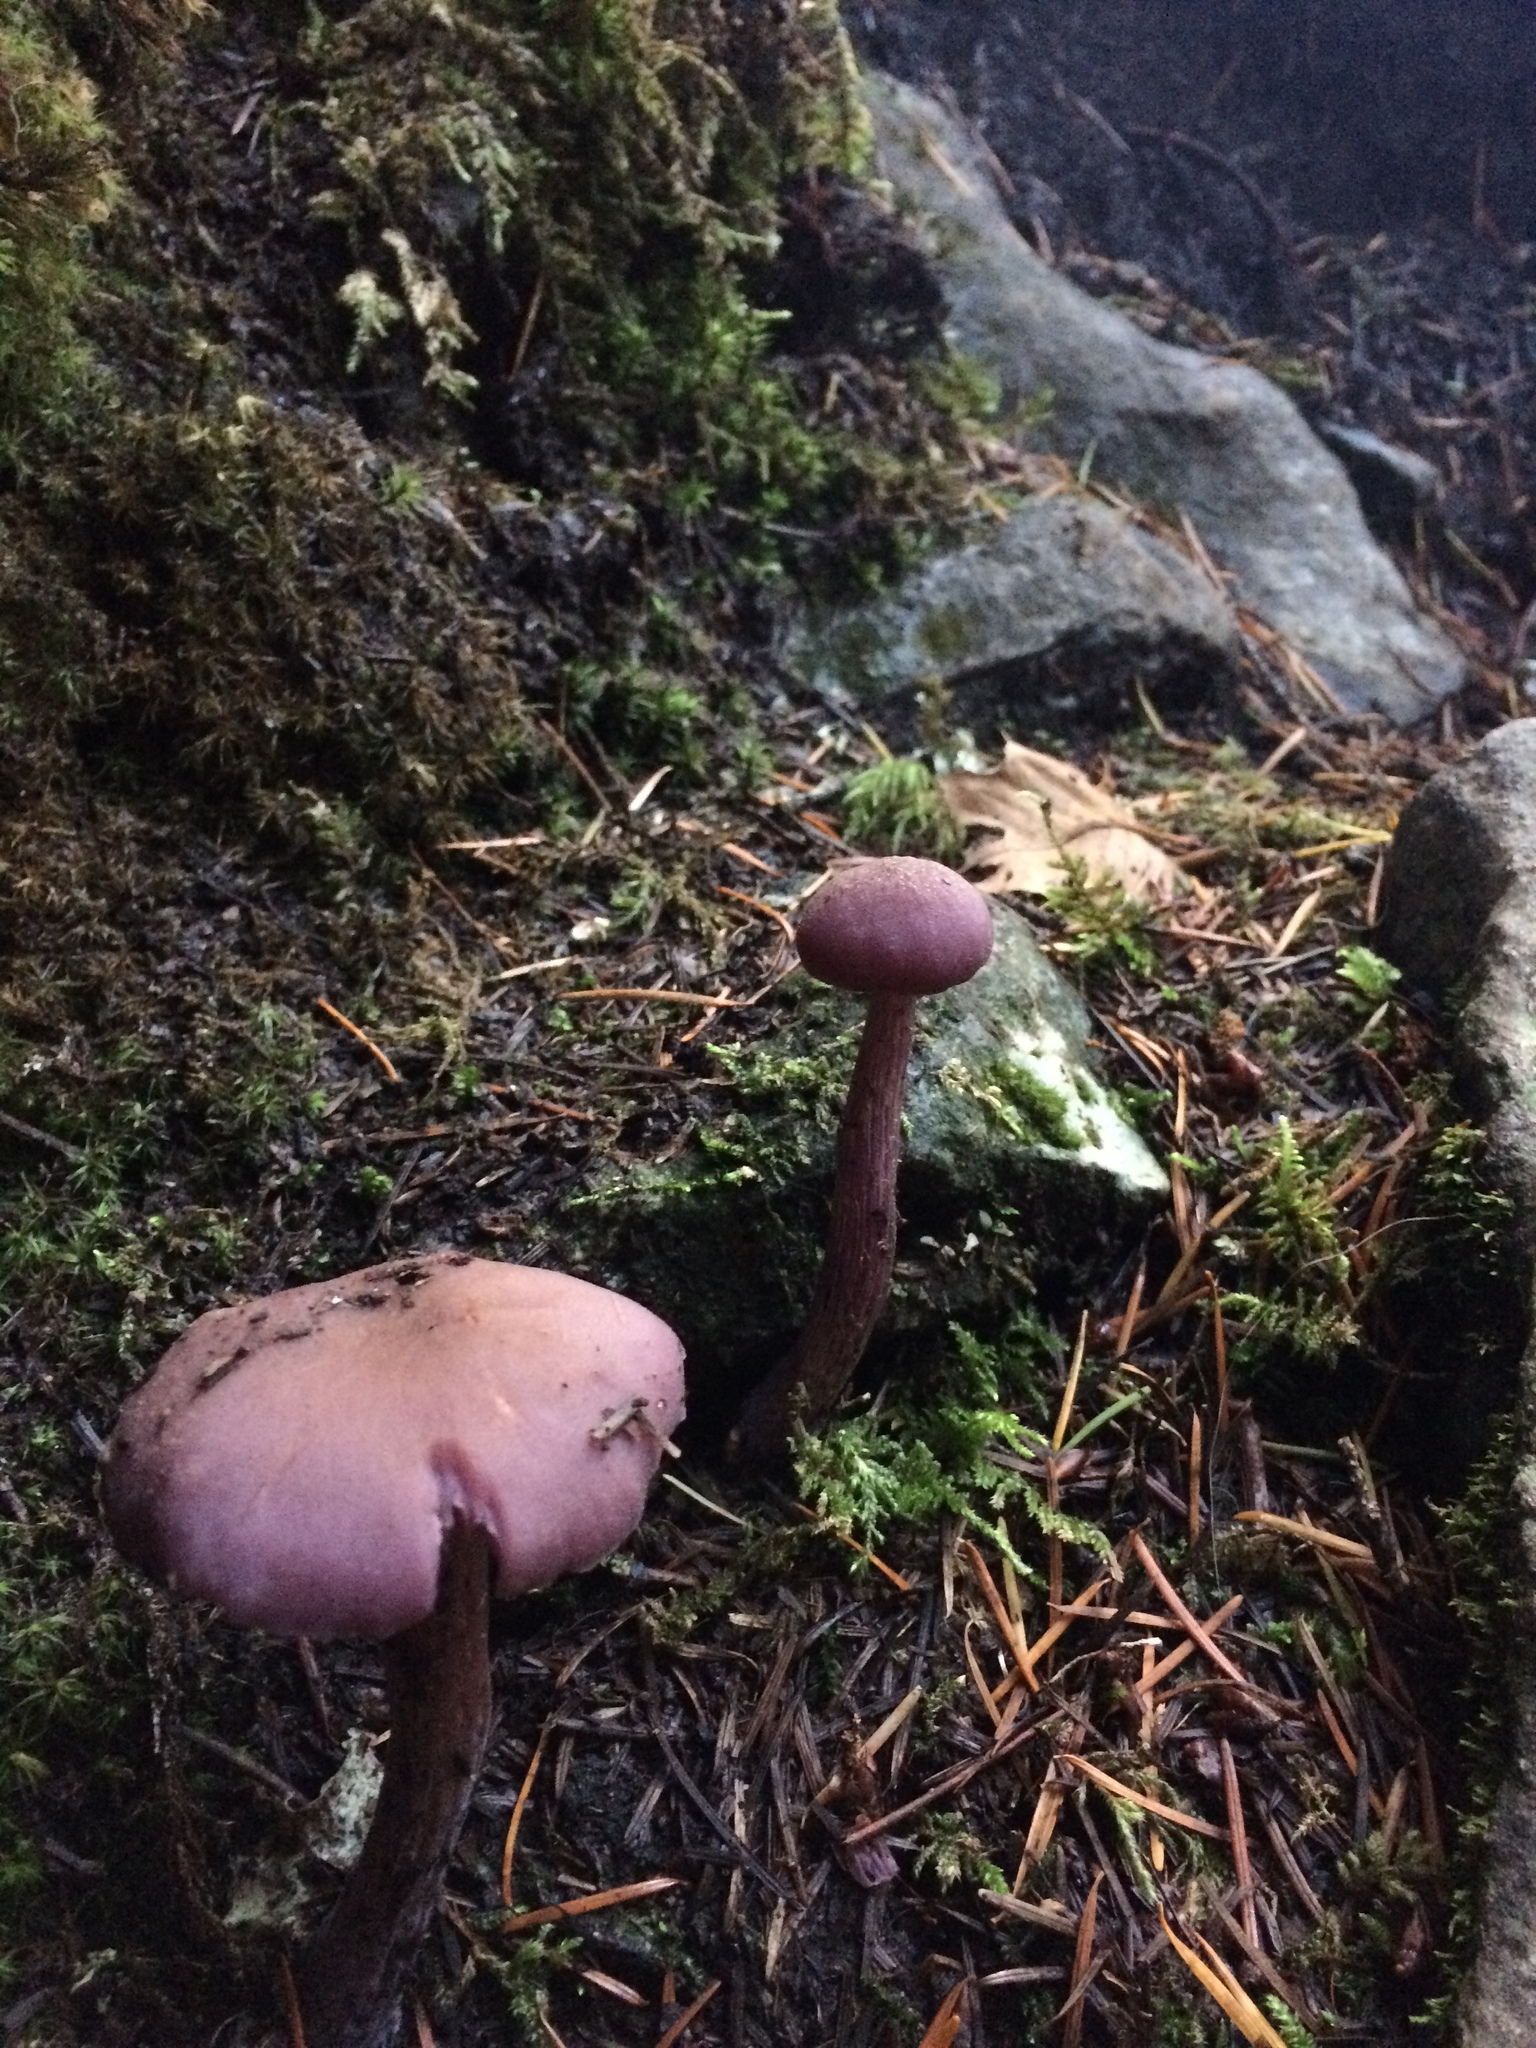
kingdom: Fungi
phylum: Basidiomycota
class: Agaricomycetes
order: Agaricales
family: Hydnangiaceae
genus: Laccaria
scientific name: Laccaria amethysteo-occidentalis
